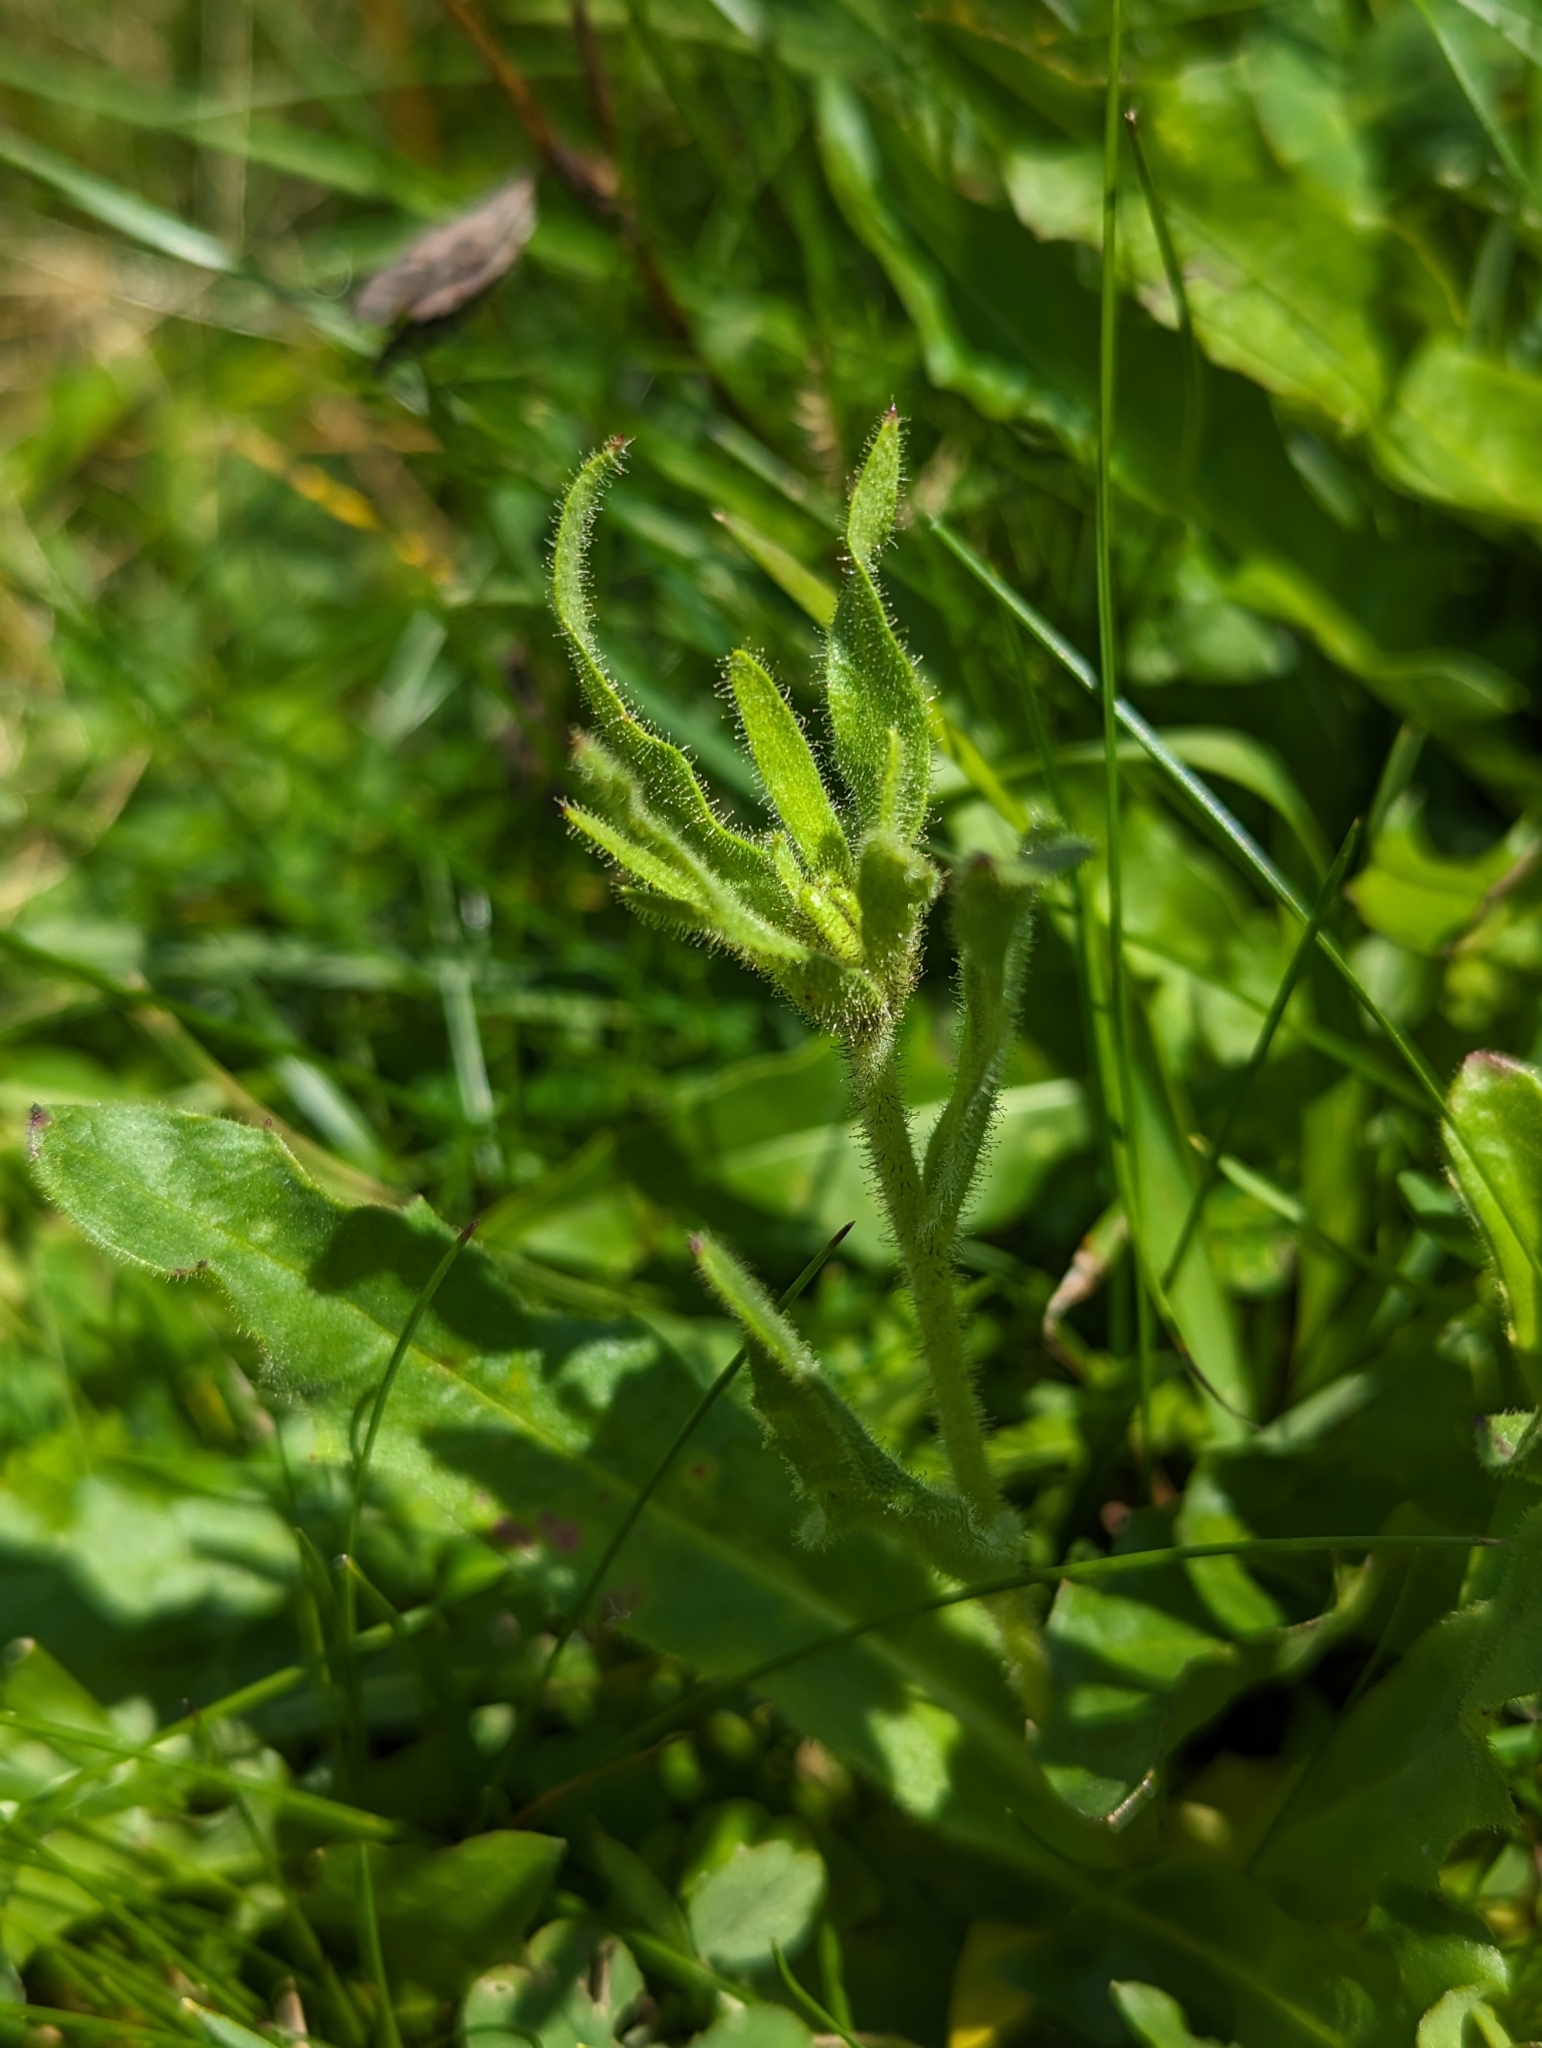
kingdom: Plantae
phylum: Tracheophyta
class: Magnoliopsida
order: Asterales
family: Asteraceae
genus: Schlagintweitia
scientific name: Schlagintweitia intybacea
